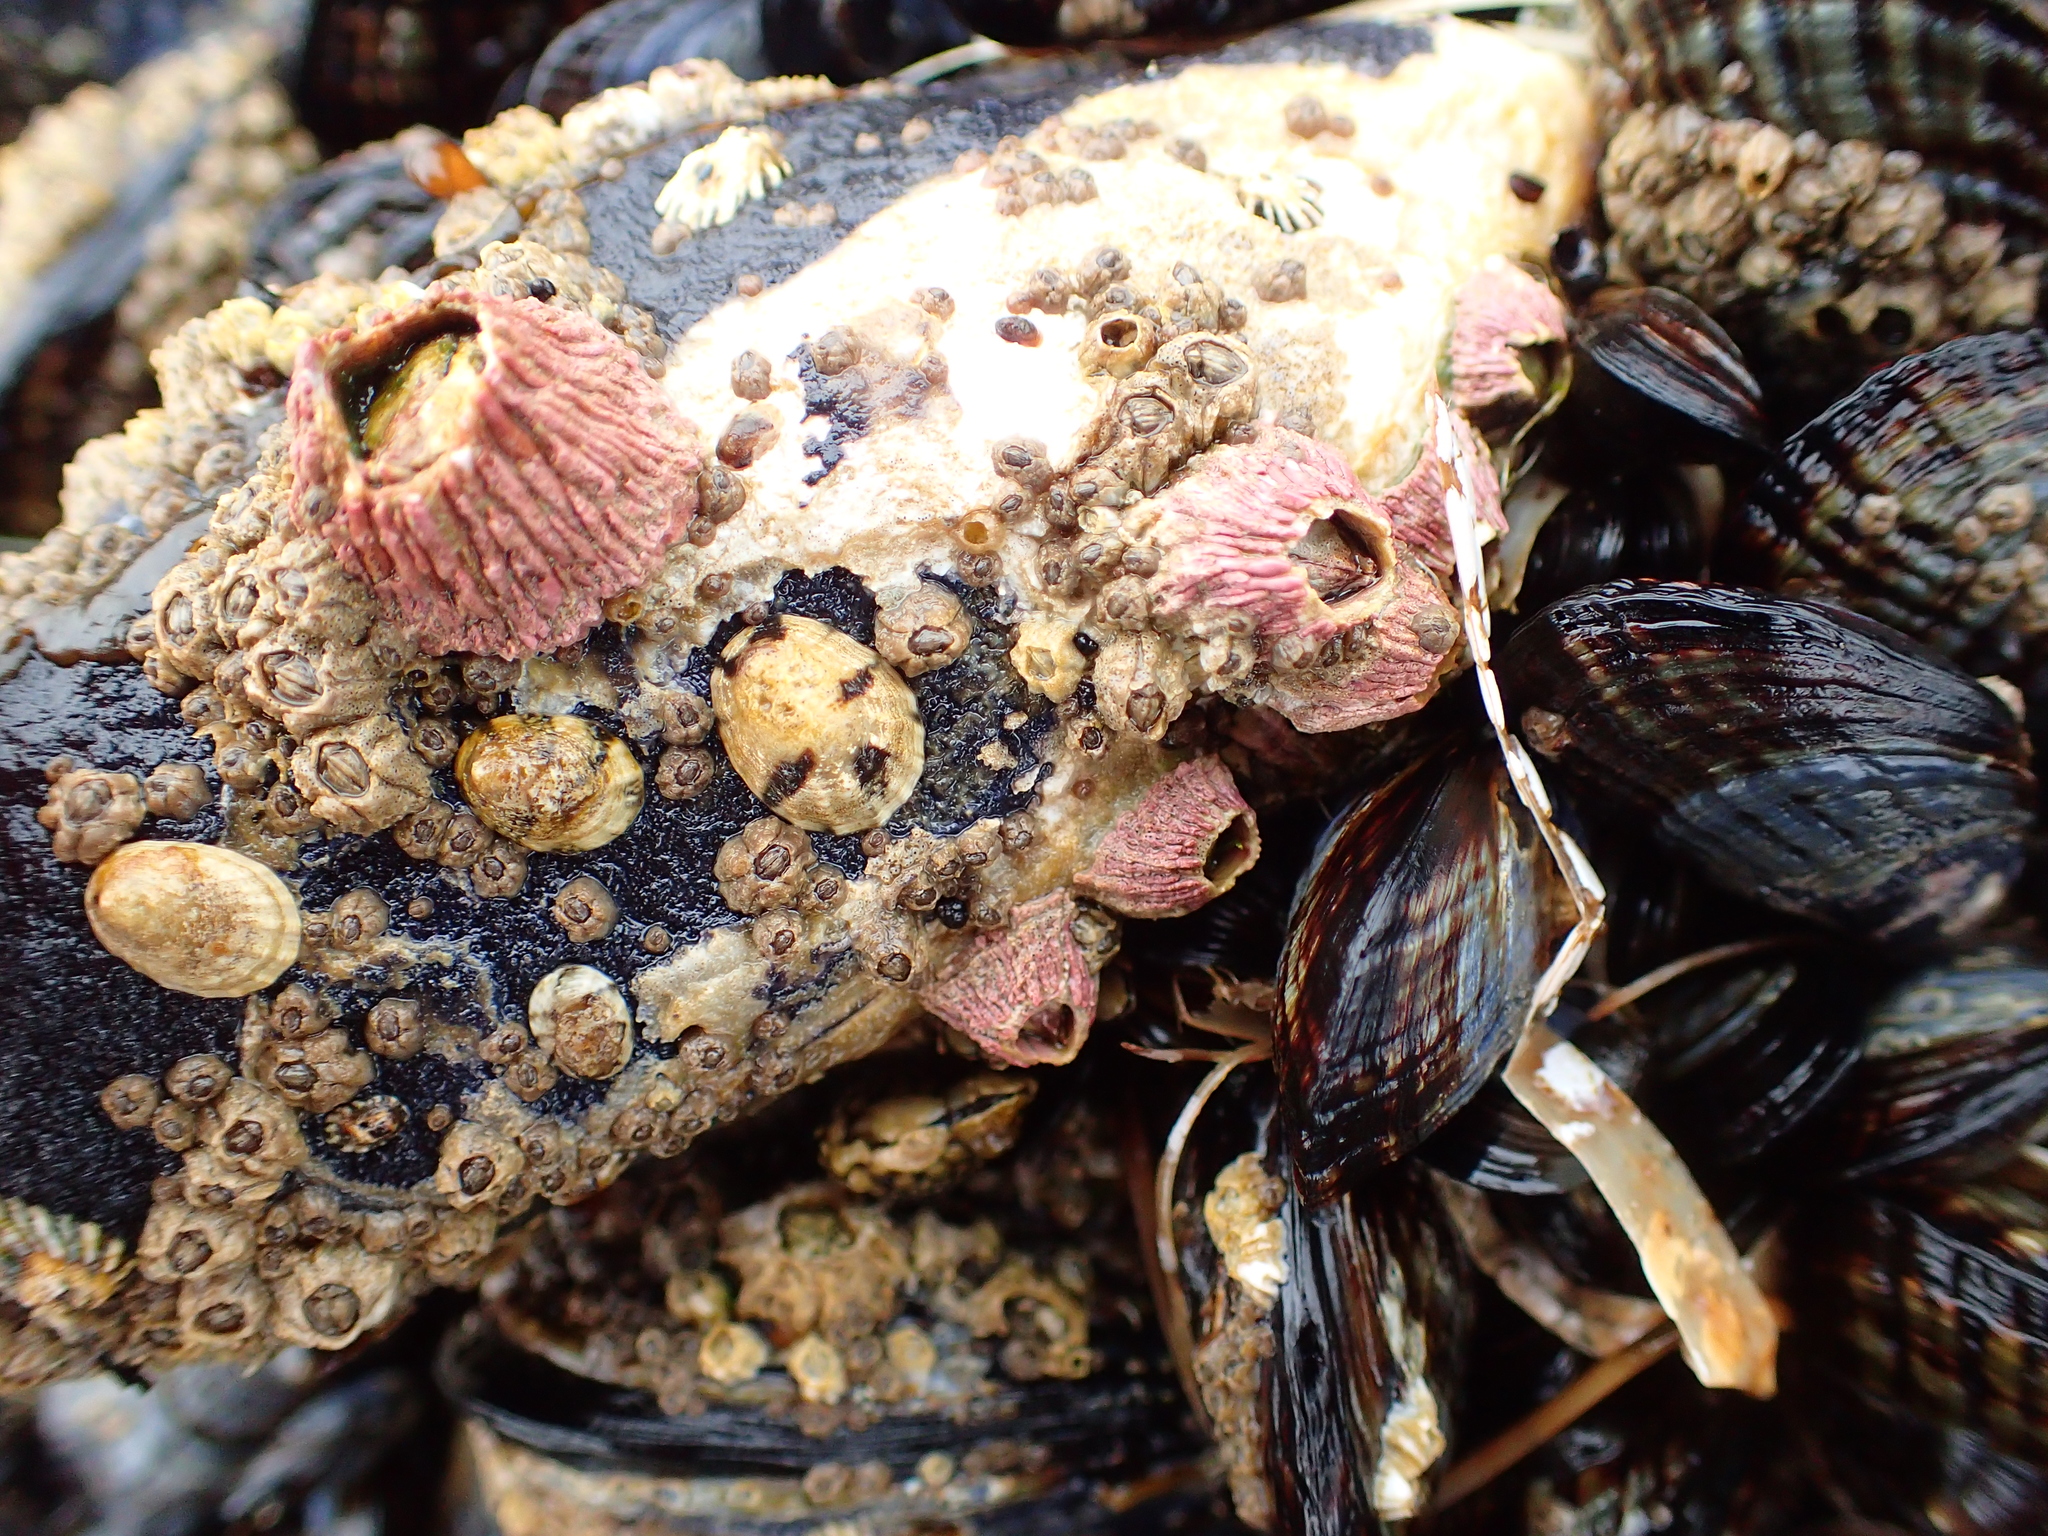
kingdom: Animalia
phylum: Arthropoda
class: Maxillopoda
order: Sessilia
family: Tetraclitidae
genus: Tetraclita
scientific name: Tetraclita rubescens
